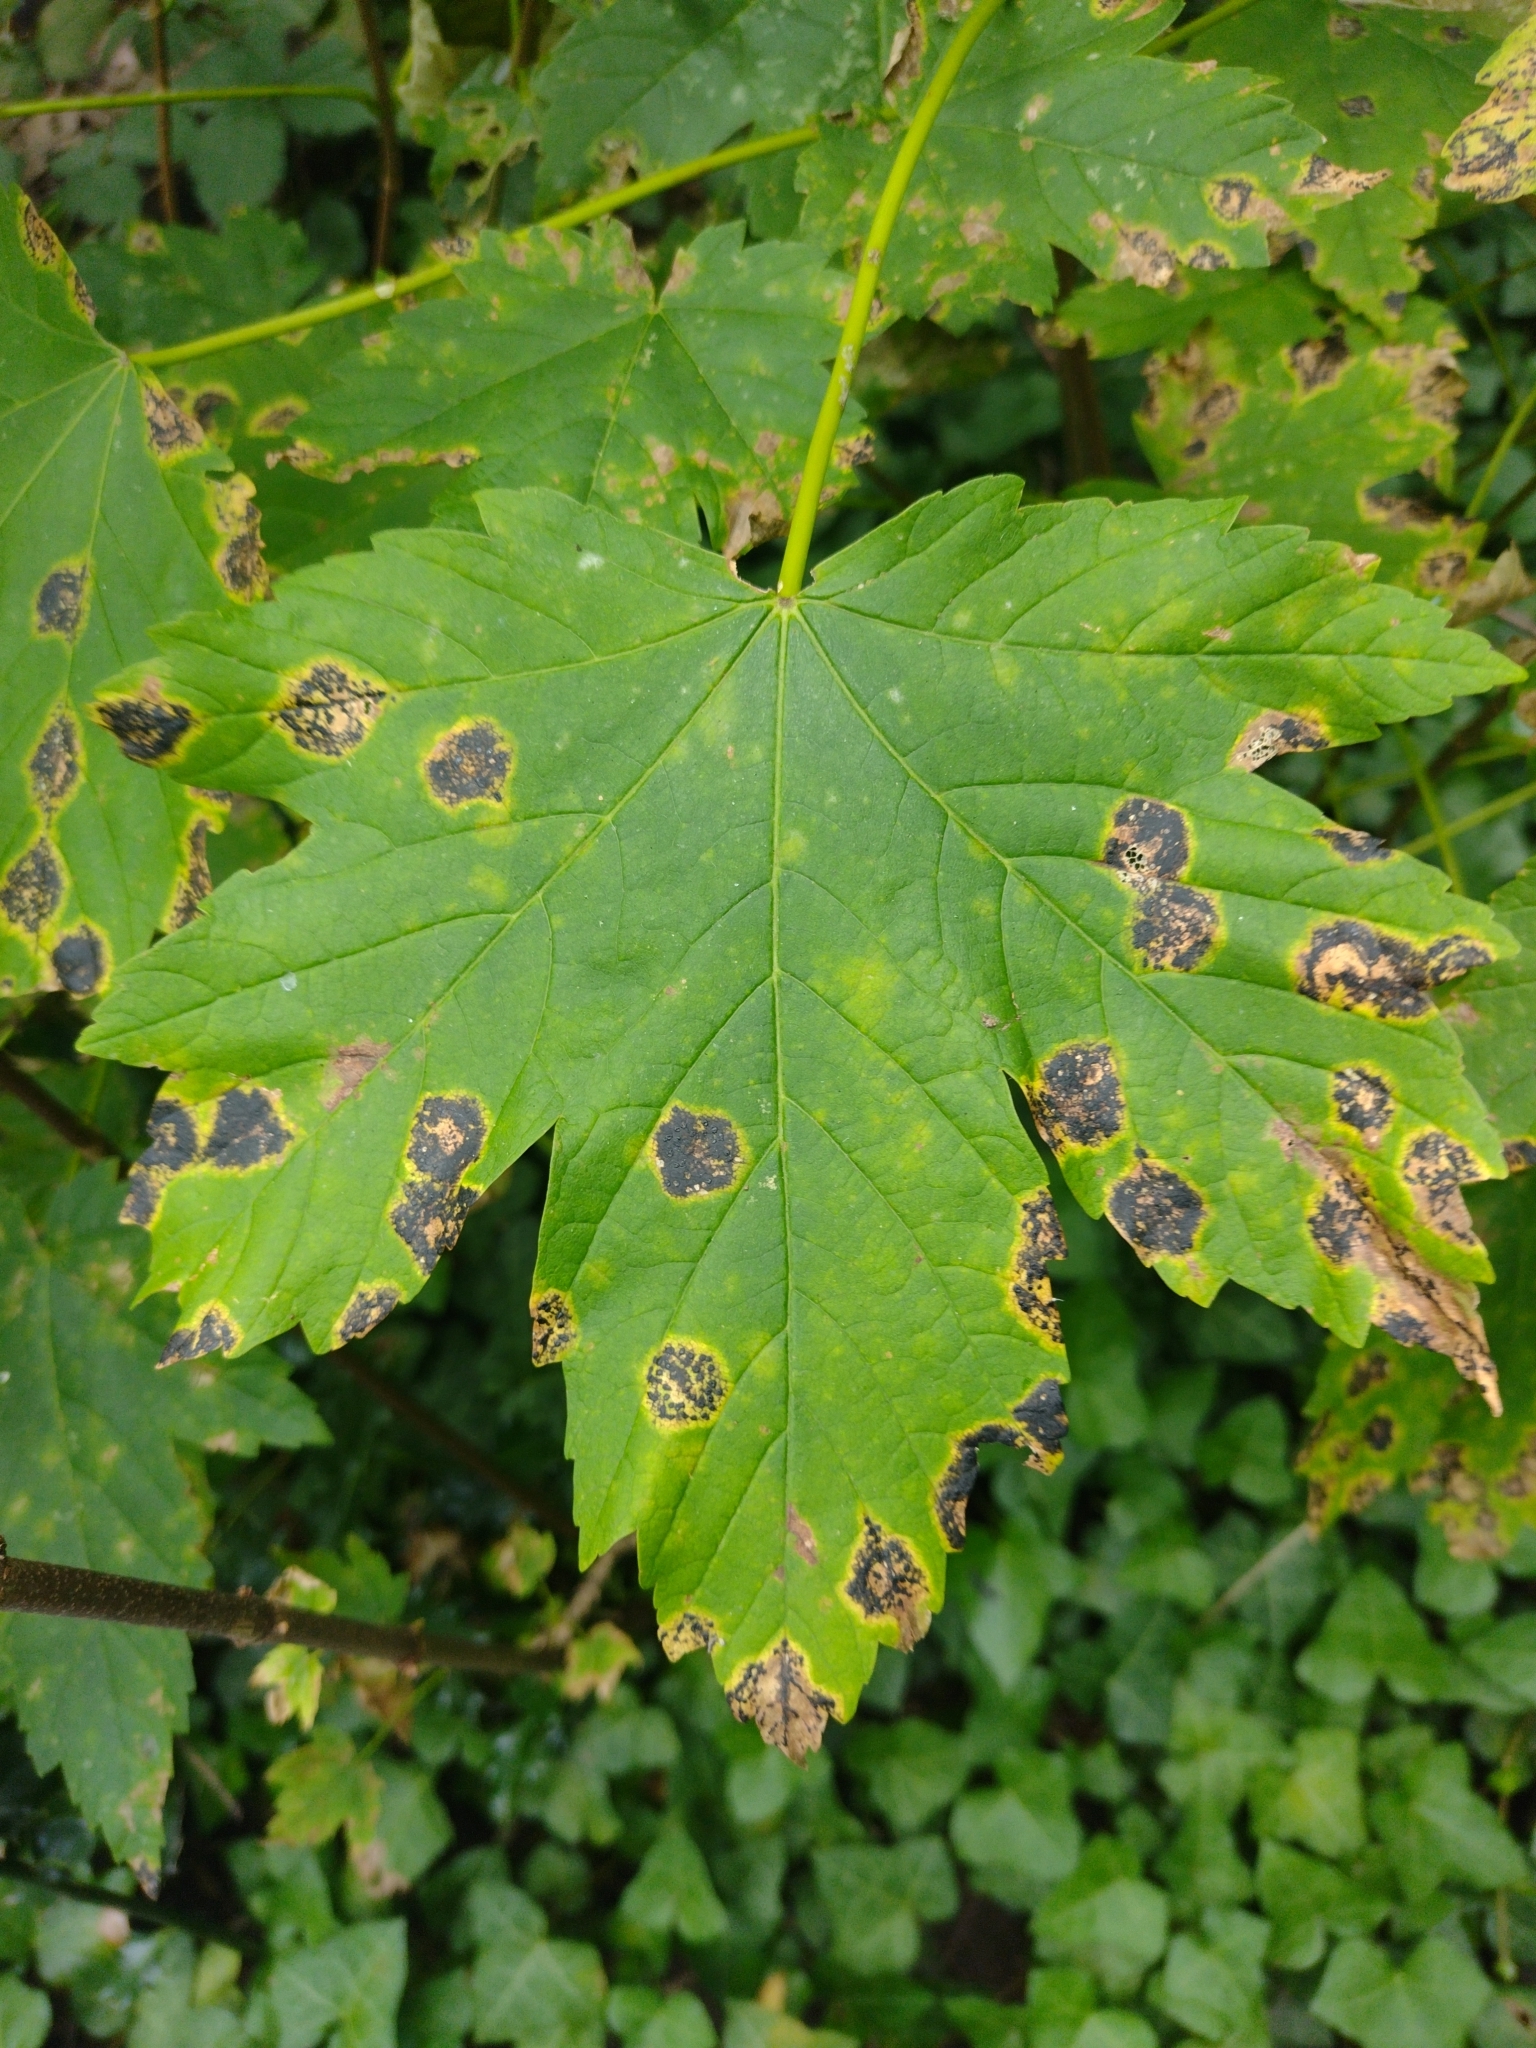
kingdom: Fungi
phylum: Ascomycota
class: Leotiomycetes
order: Rhytismatales
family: Rhytismataceae
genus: Rhytisma
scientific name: Rhytisma acerinum
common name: European tar spot
